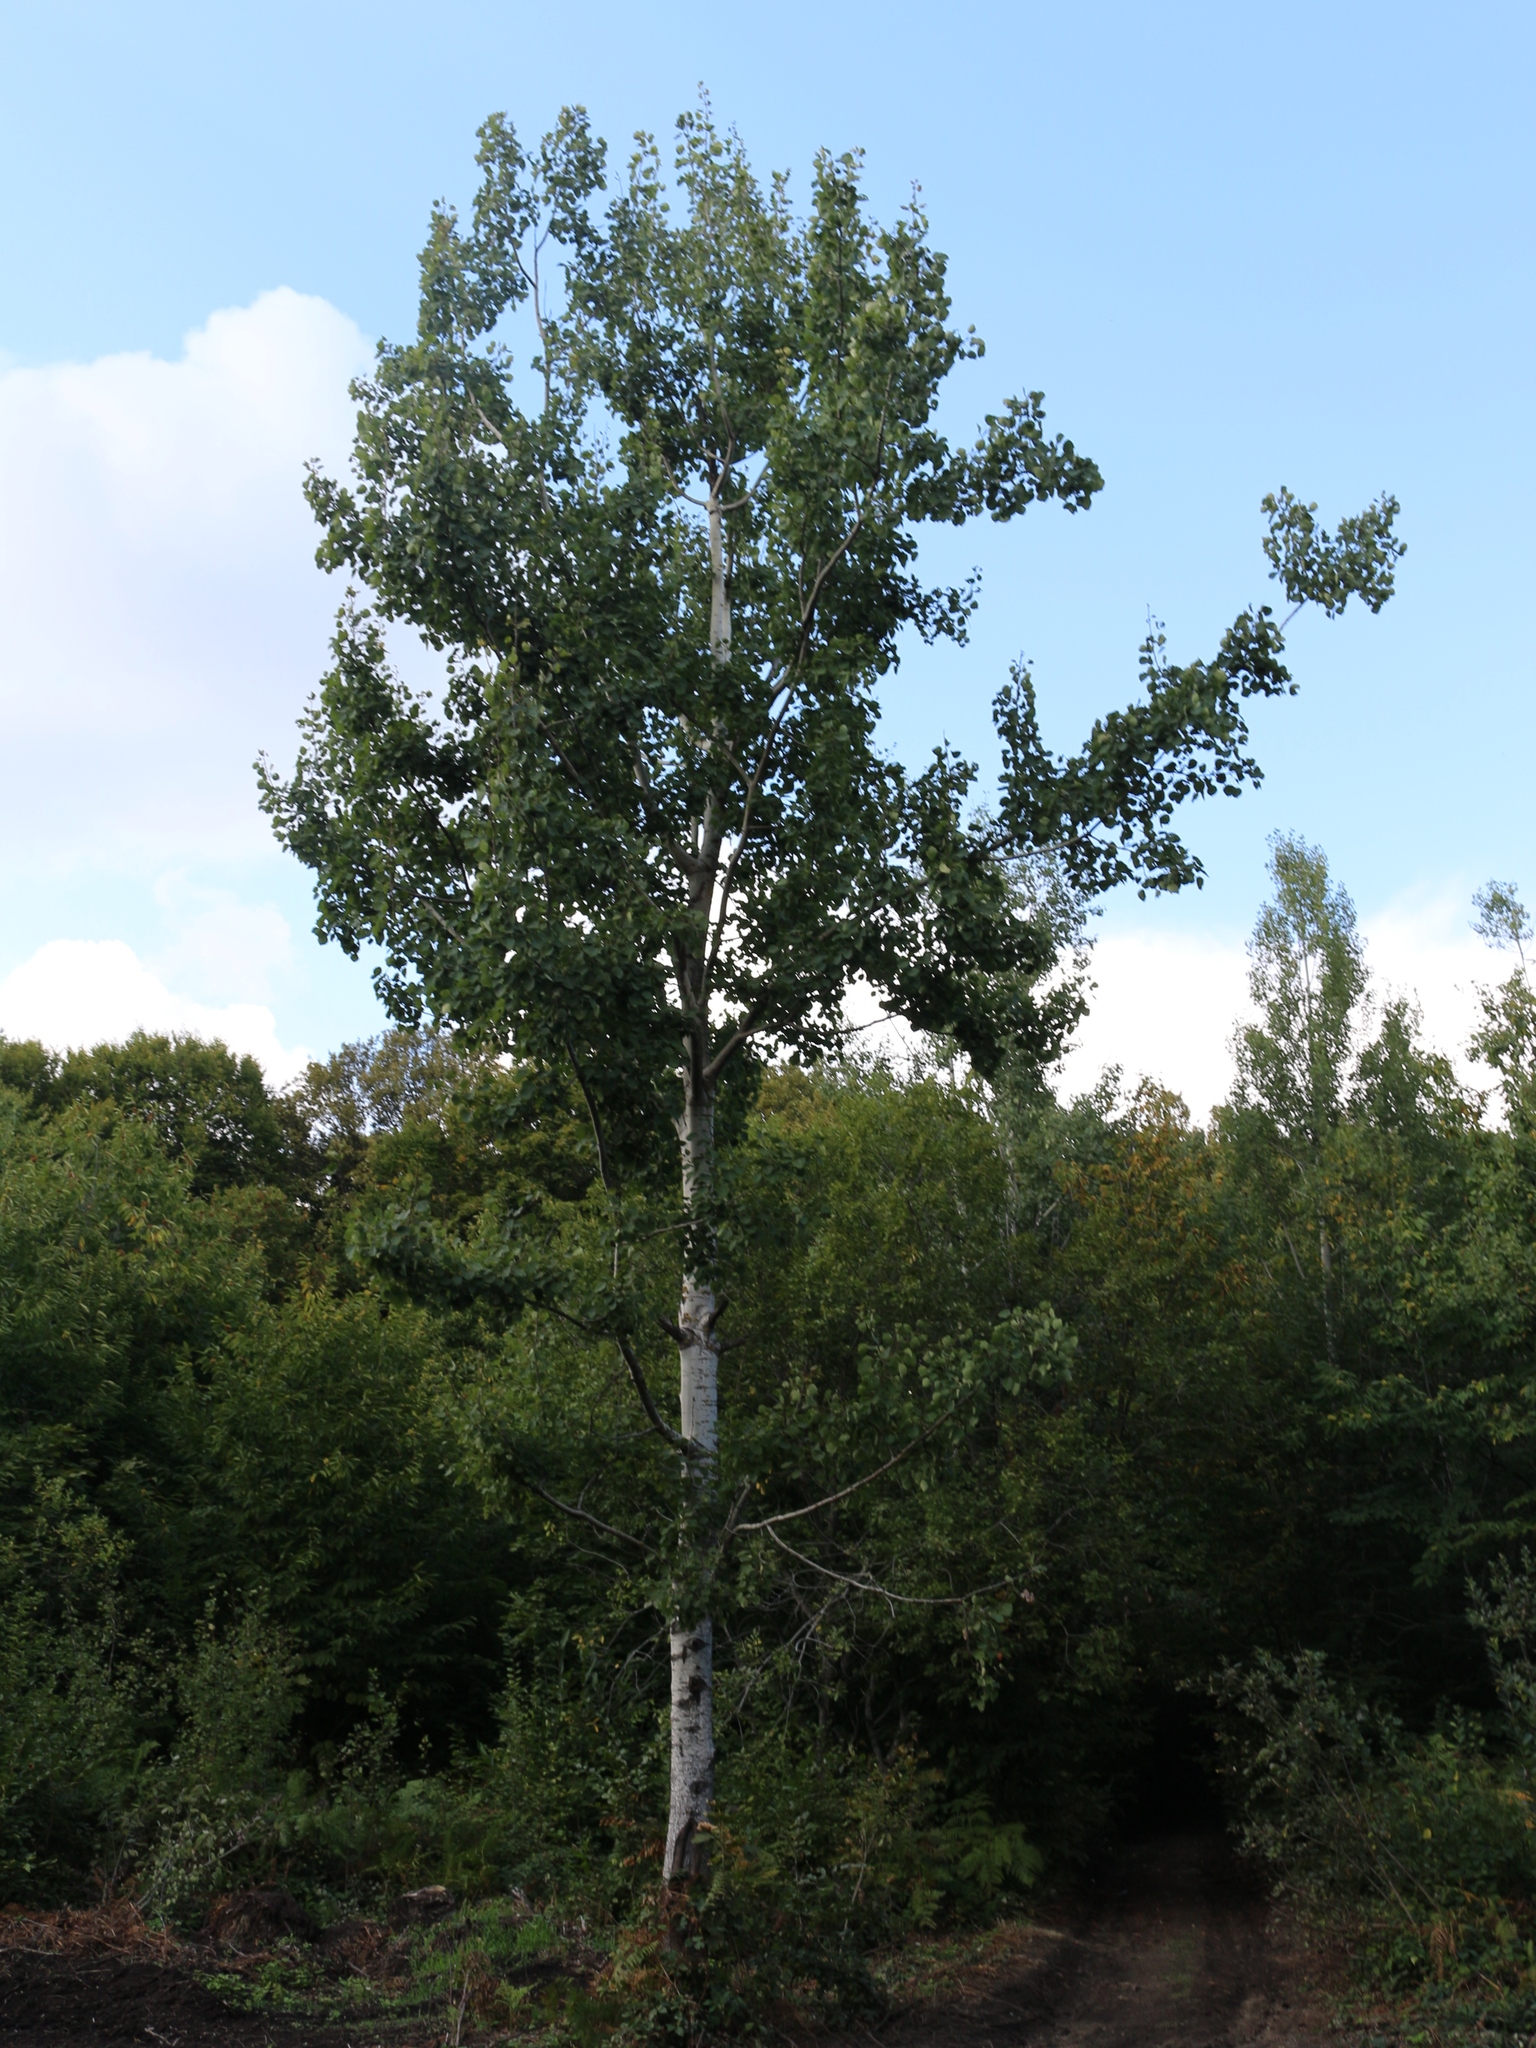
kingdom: Plantae
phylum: Tracheophyta
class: Magnoliopsida
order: Malpighiales
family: Salicaceae
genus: Populus
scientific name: Populus tremula
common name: European aspen
